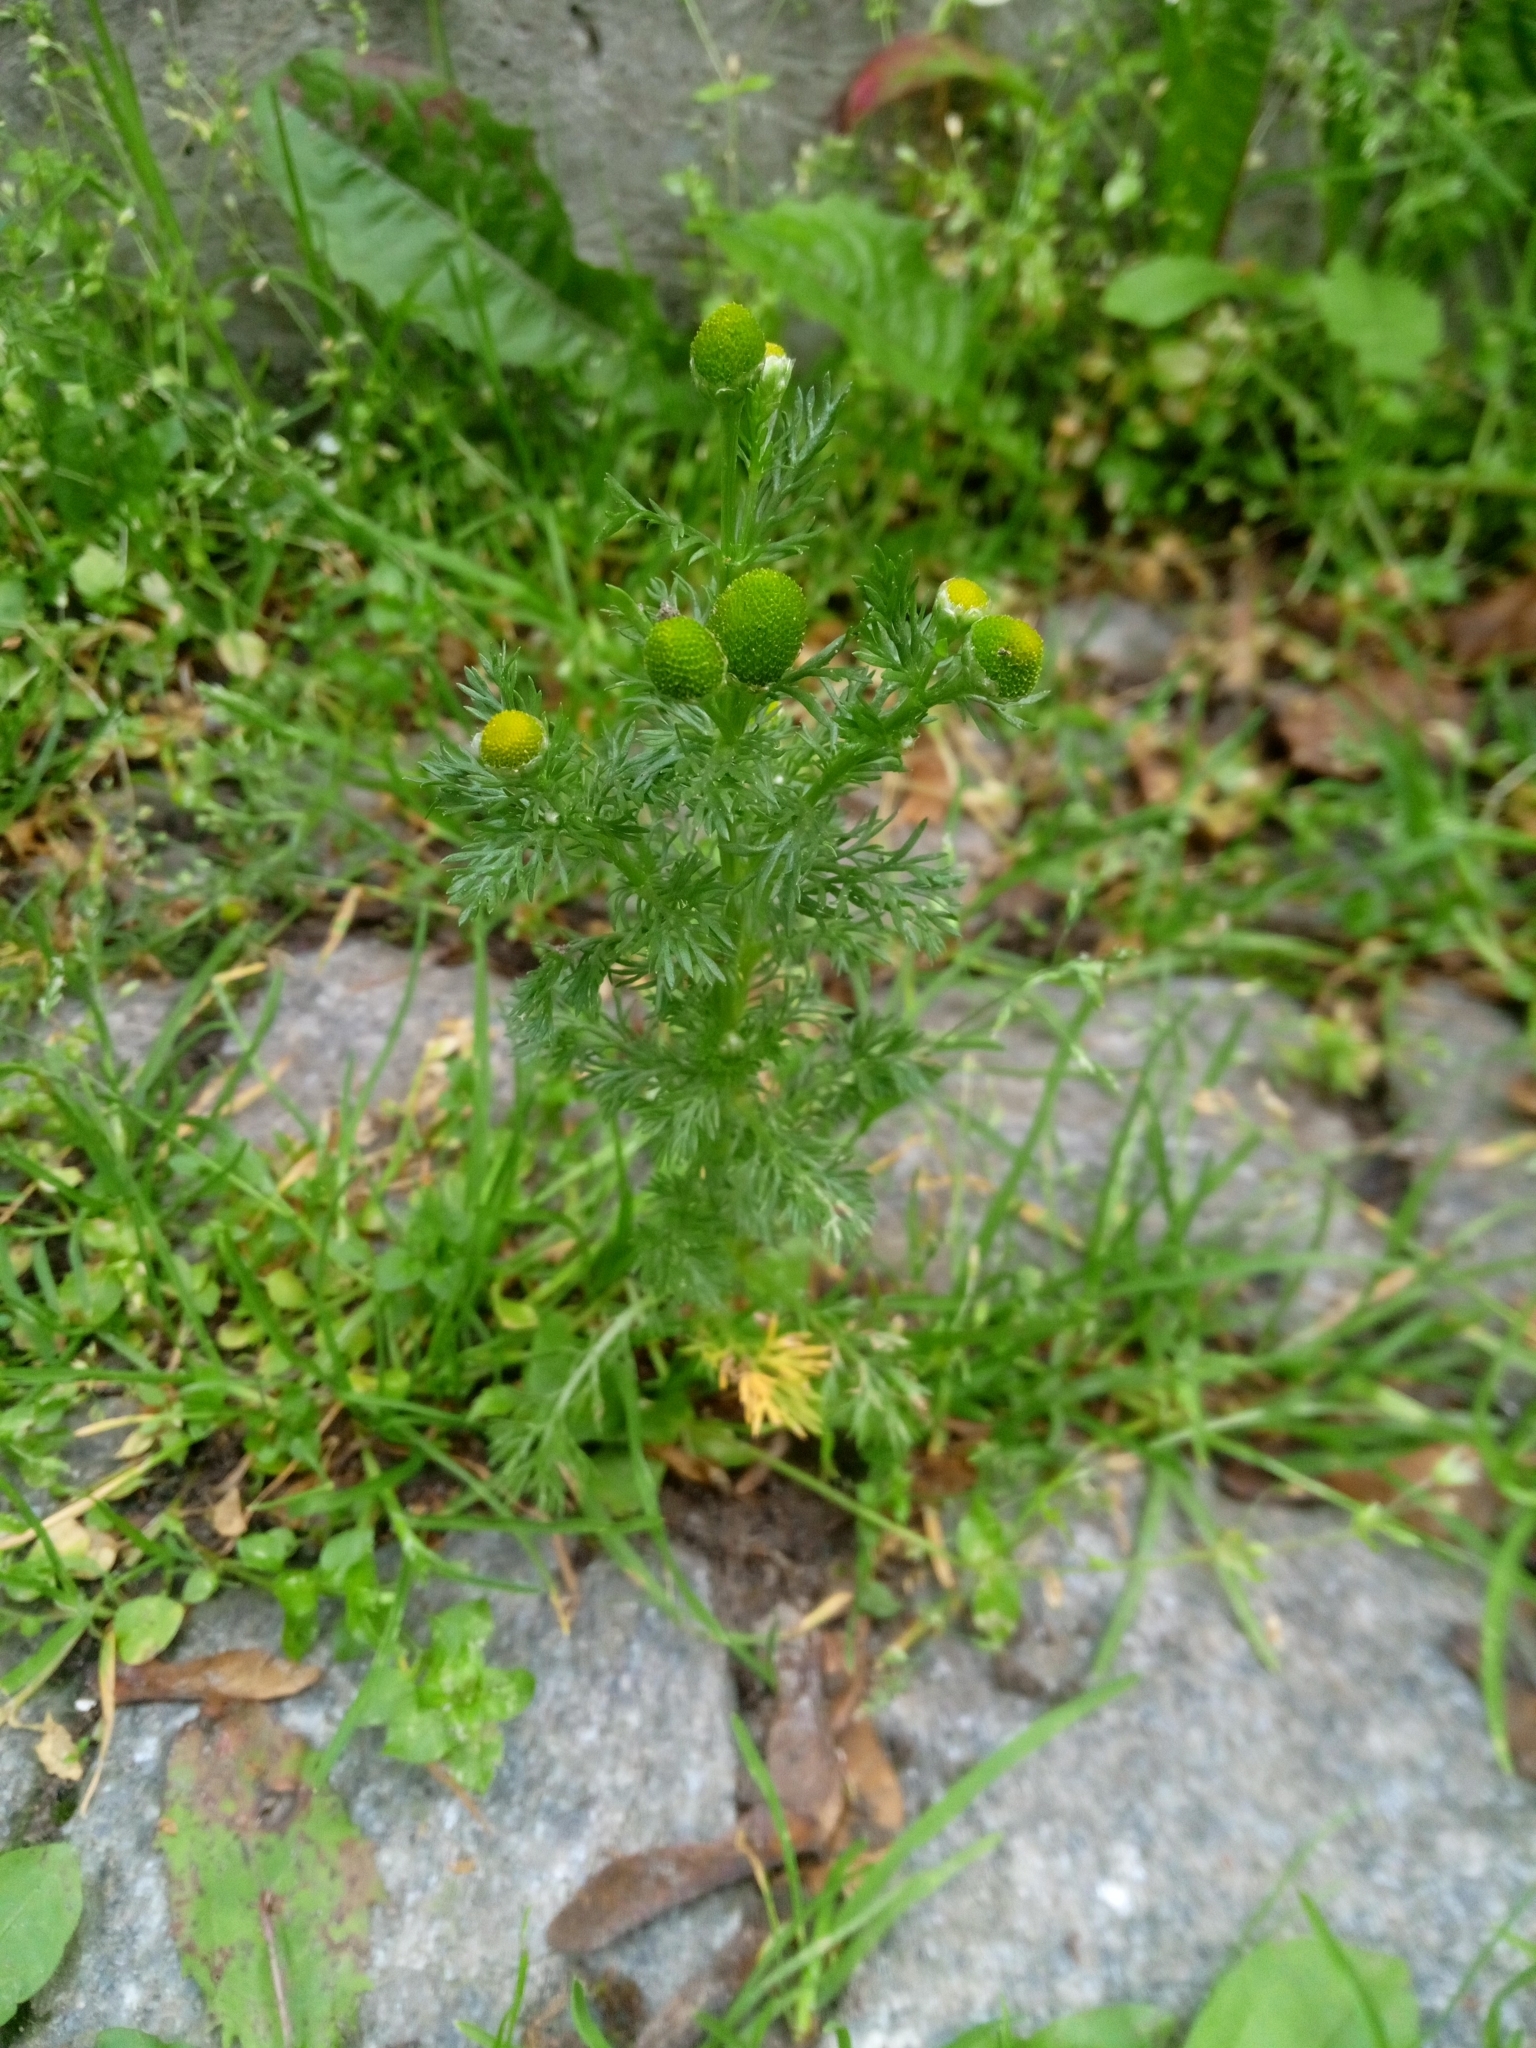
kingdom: Plantae
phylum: Tracheophyta
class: Magnoliopsida
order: Asterales
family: Asteraceae
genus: Matricaria
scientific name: Matricaria discoidea
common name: Disc mayweed
